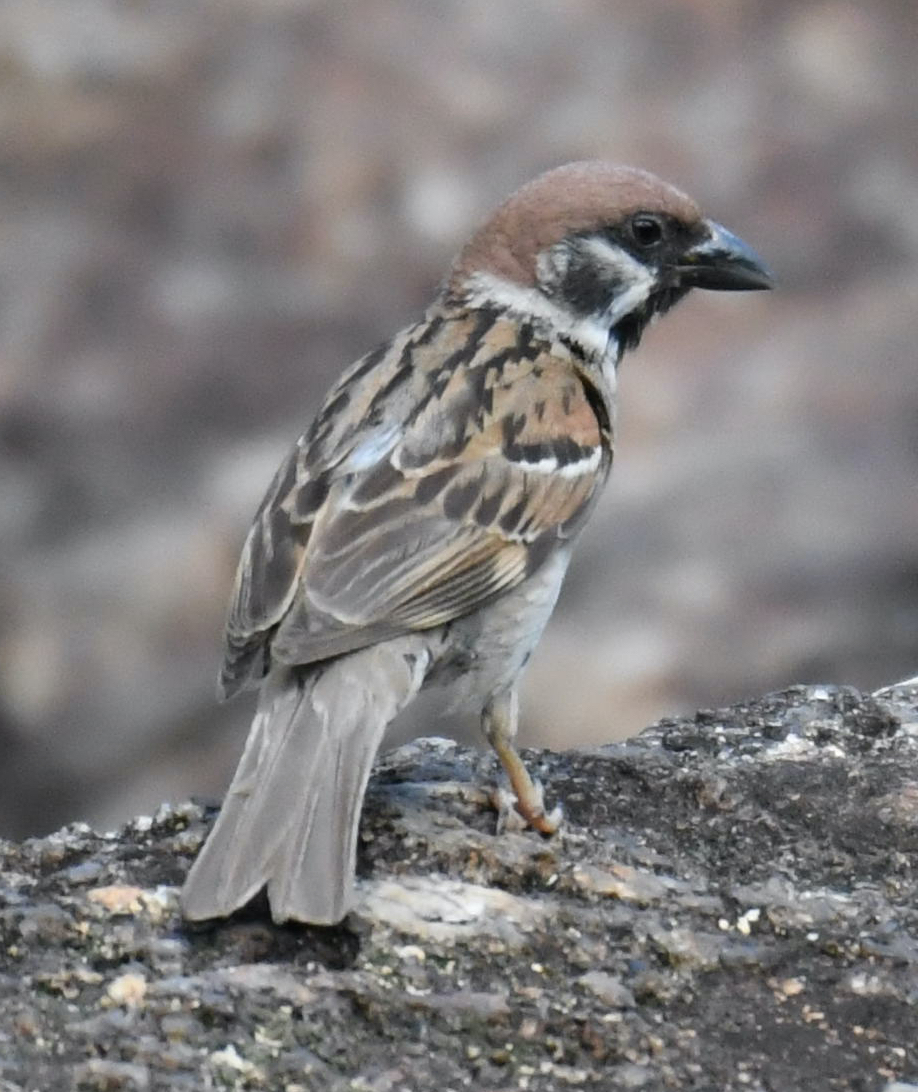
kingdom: Animalia
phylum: Chordata
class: Aves
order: Passeriformes
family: Passeridae
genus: Passer
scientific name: Passer montanus
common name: Eurasian tree sparrow
